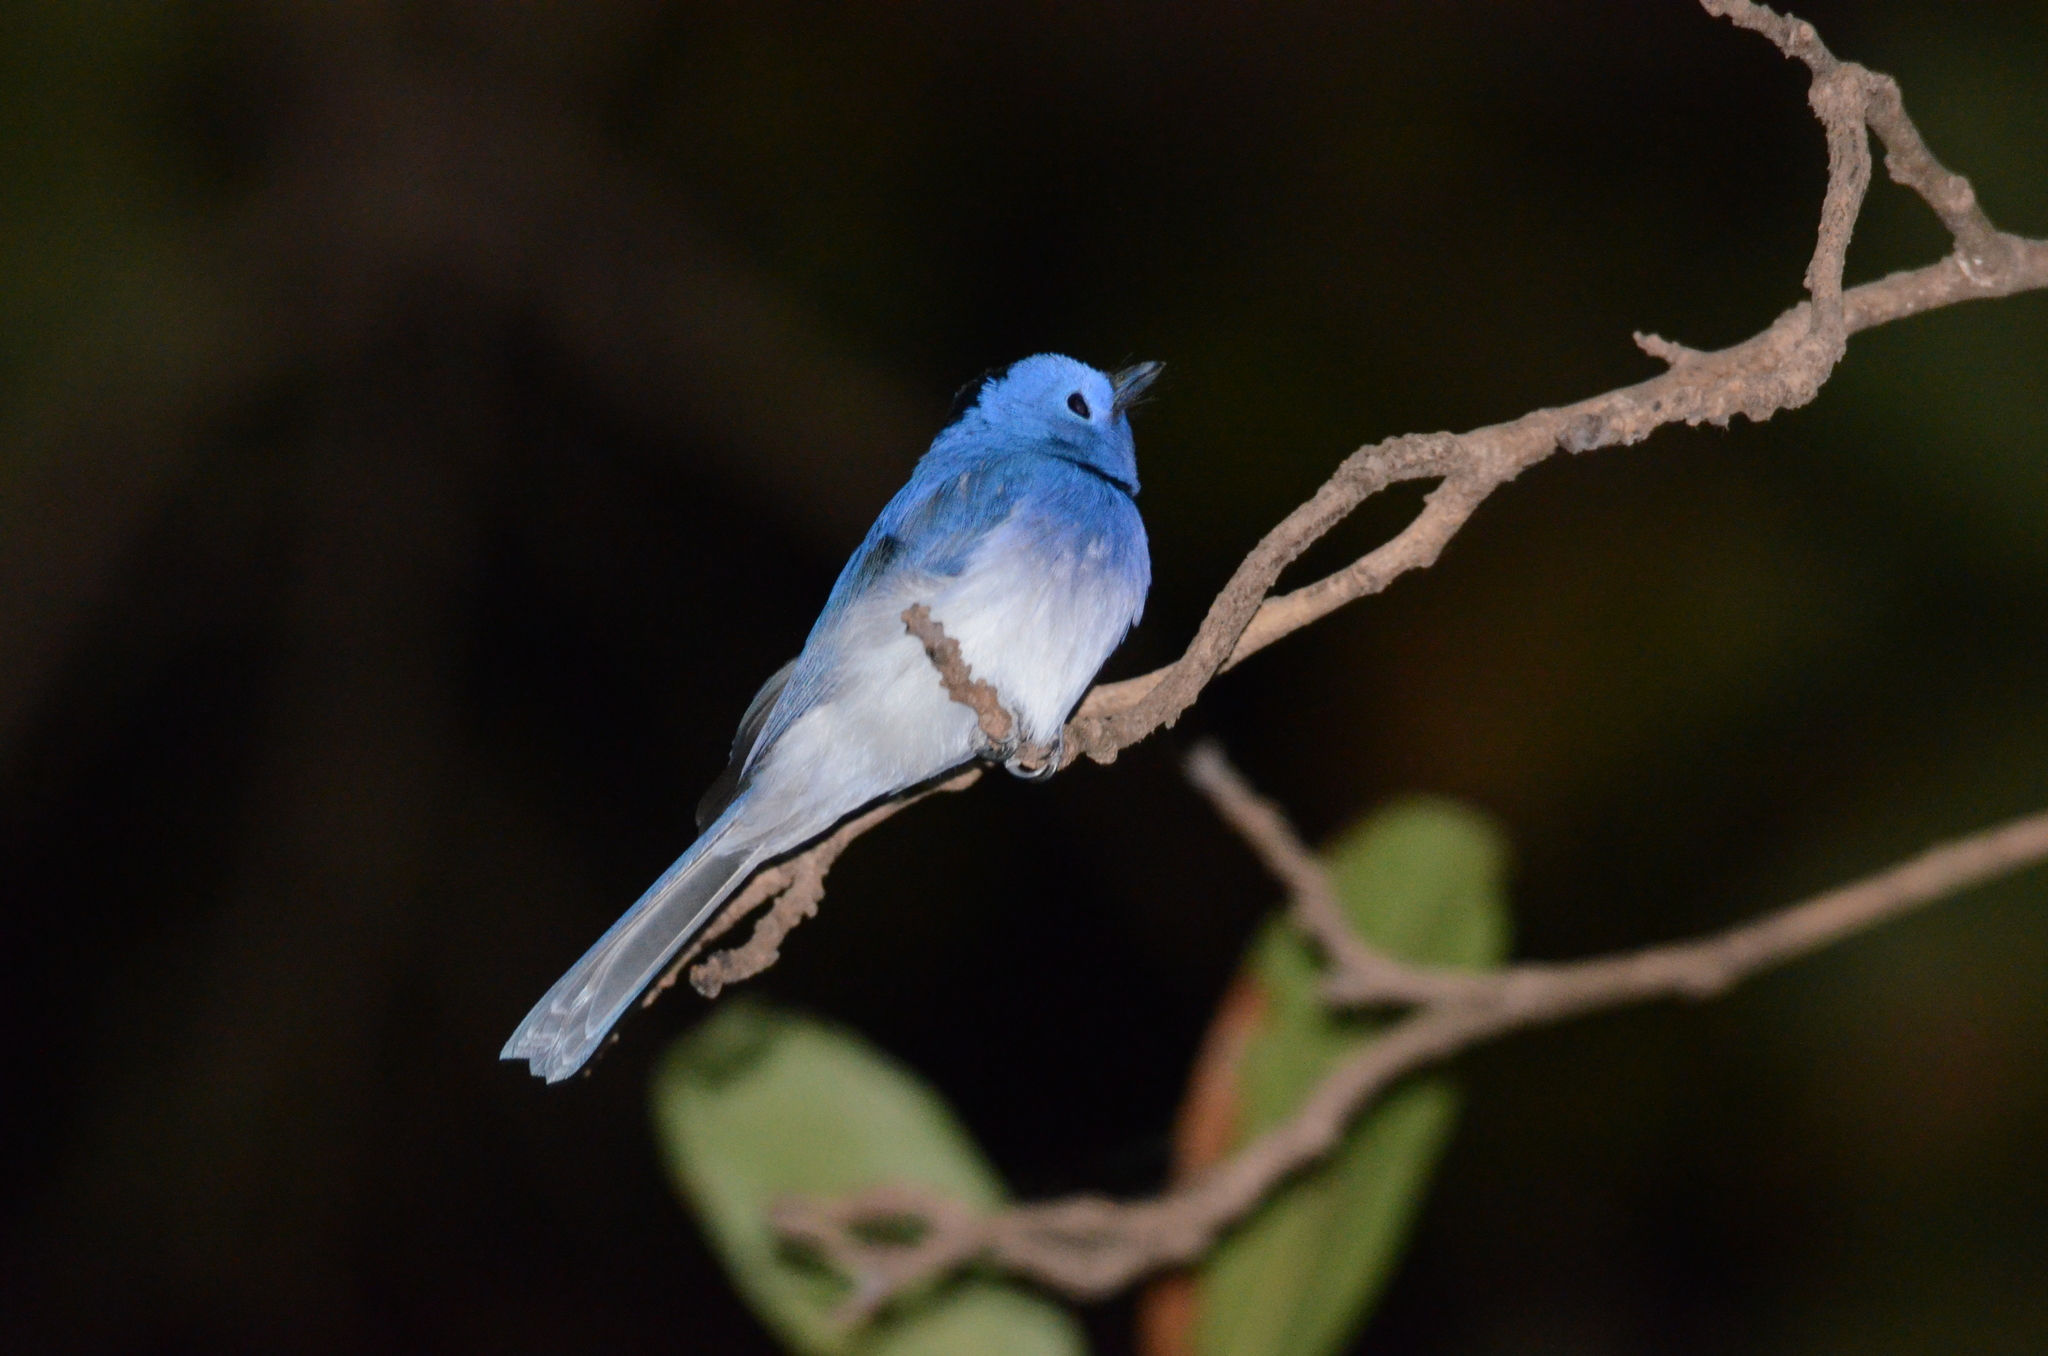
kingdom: Animalia
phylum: Chordata
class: Aves
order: Passeriformes
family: Monarchidae
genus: Hypothymis
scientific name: Hypothymis azurea
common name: Black-naped monarch
